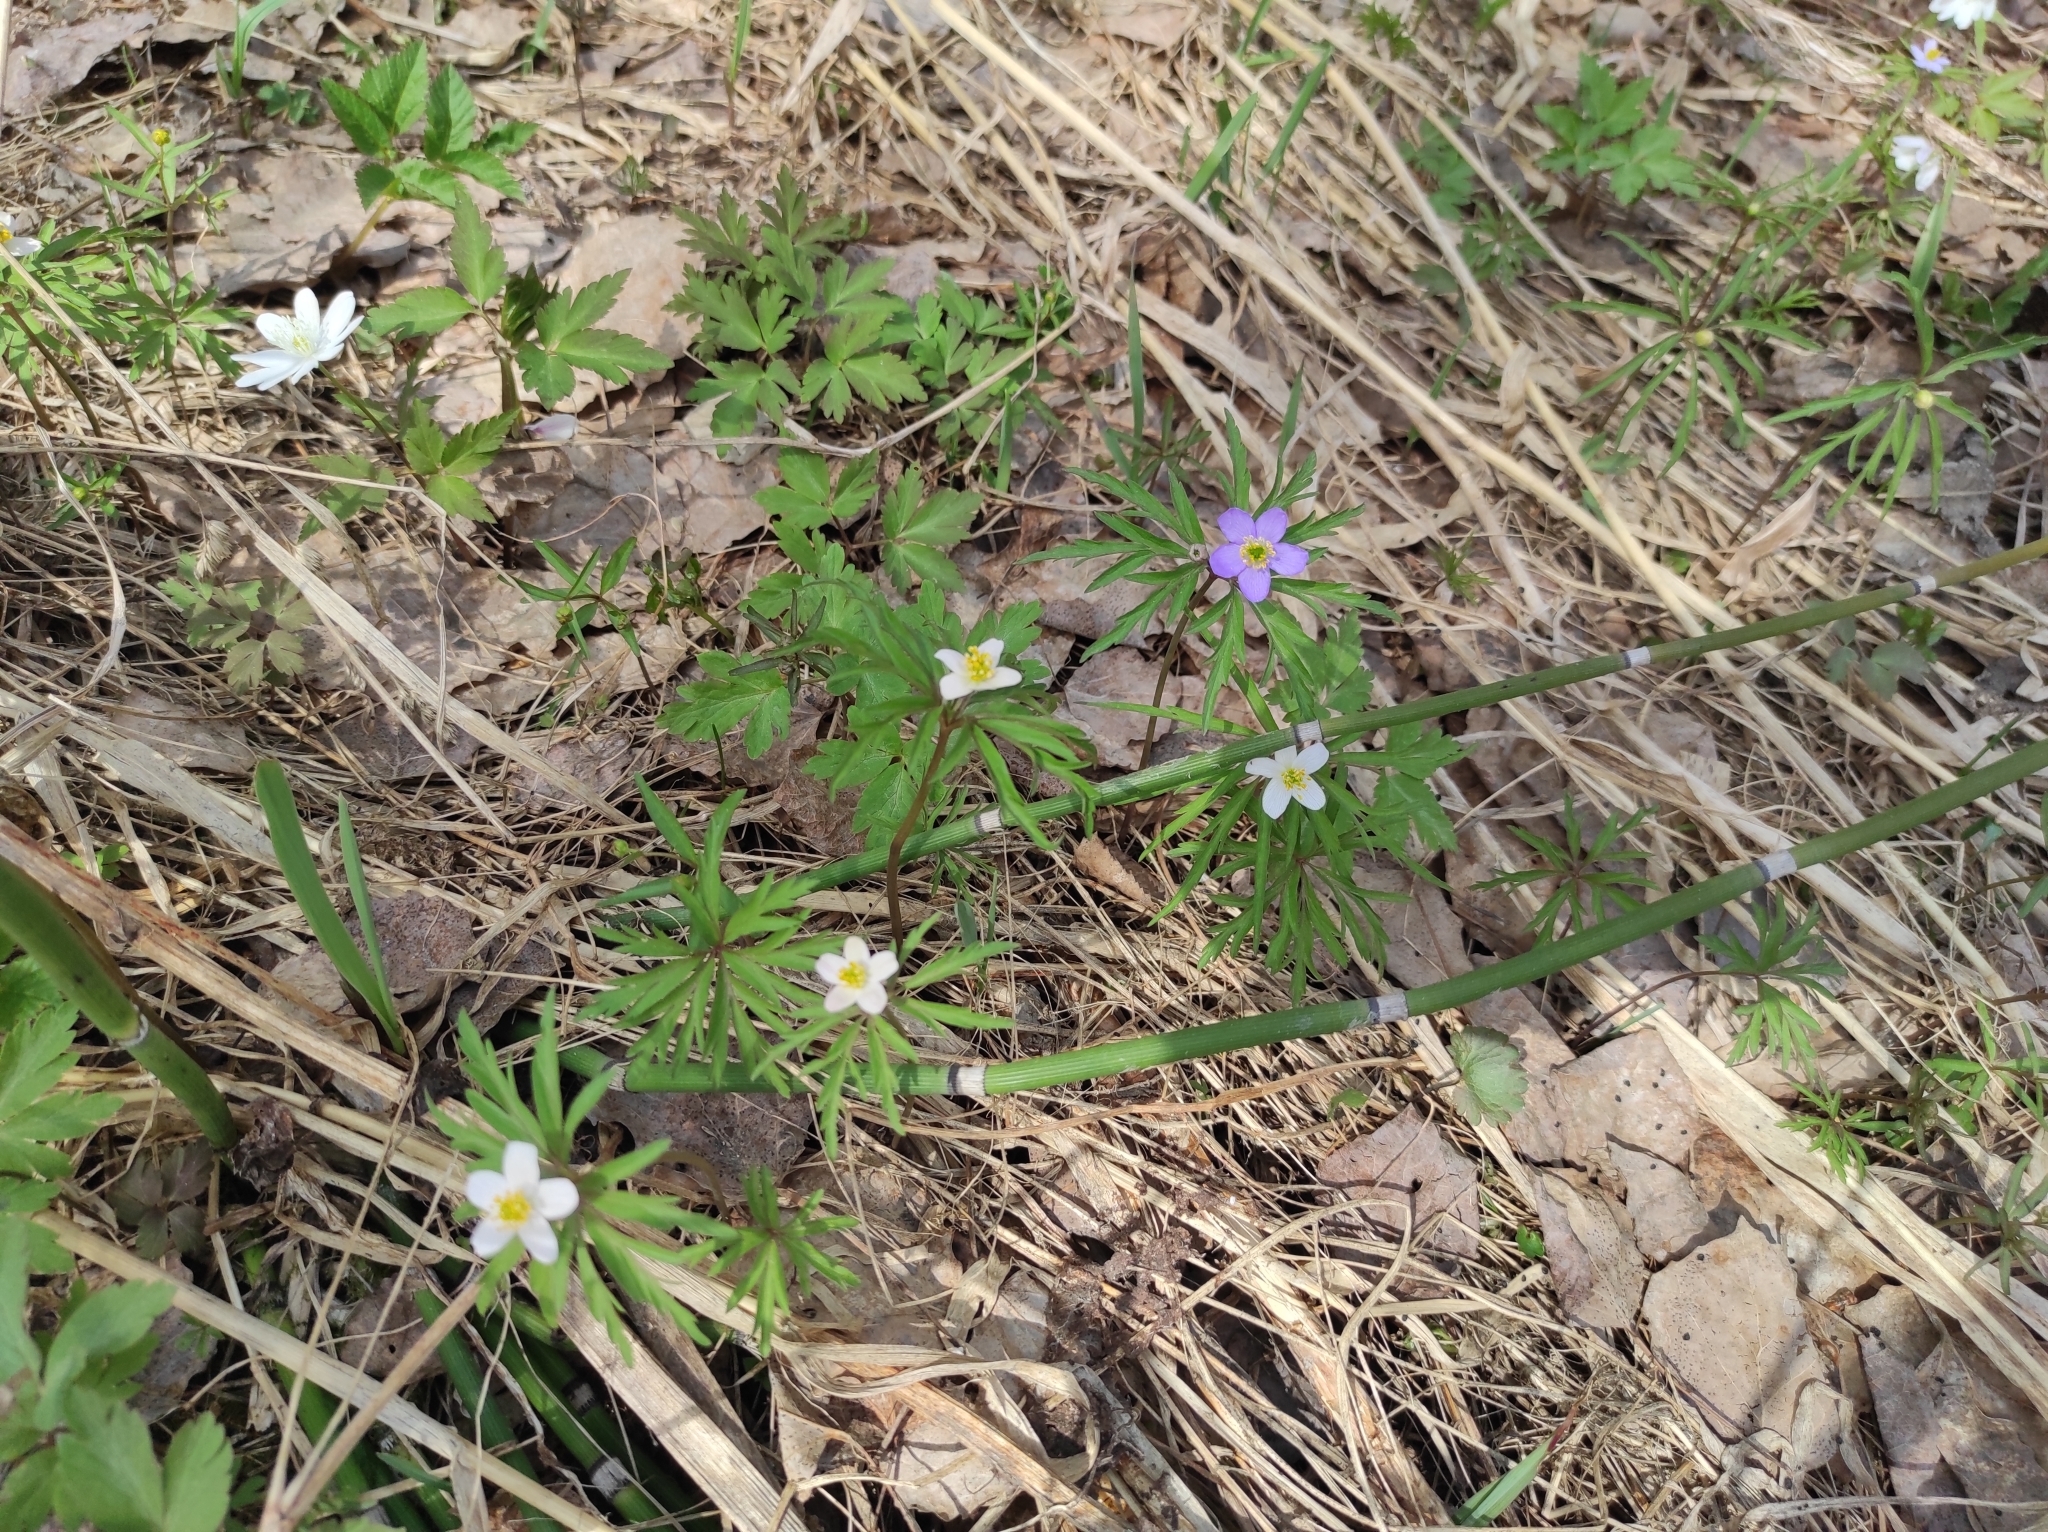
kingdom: Plantae
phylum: Tracheophyta
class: Magnoliopsida
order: Ranunculales
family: Ranunculaceae
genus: Anemone
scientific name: Anemone caerulea
